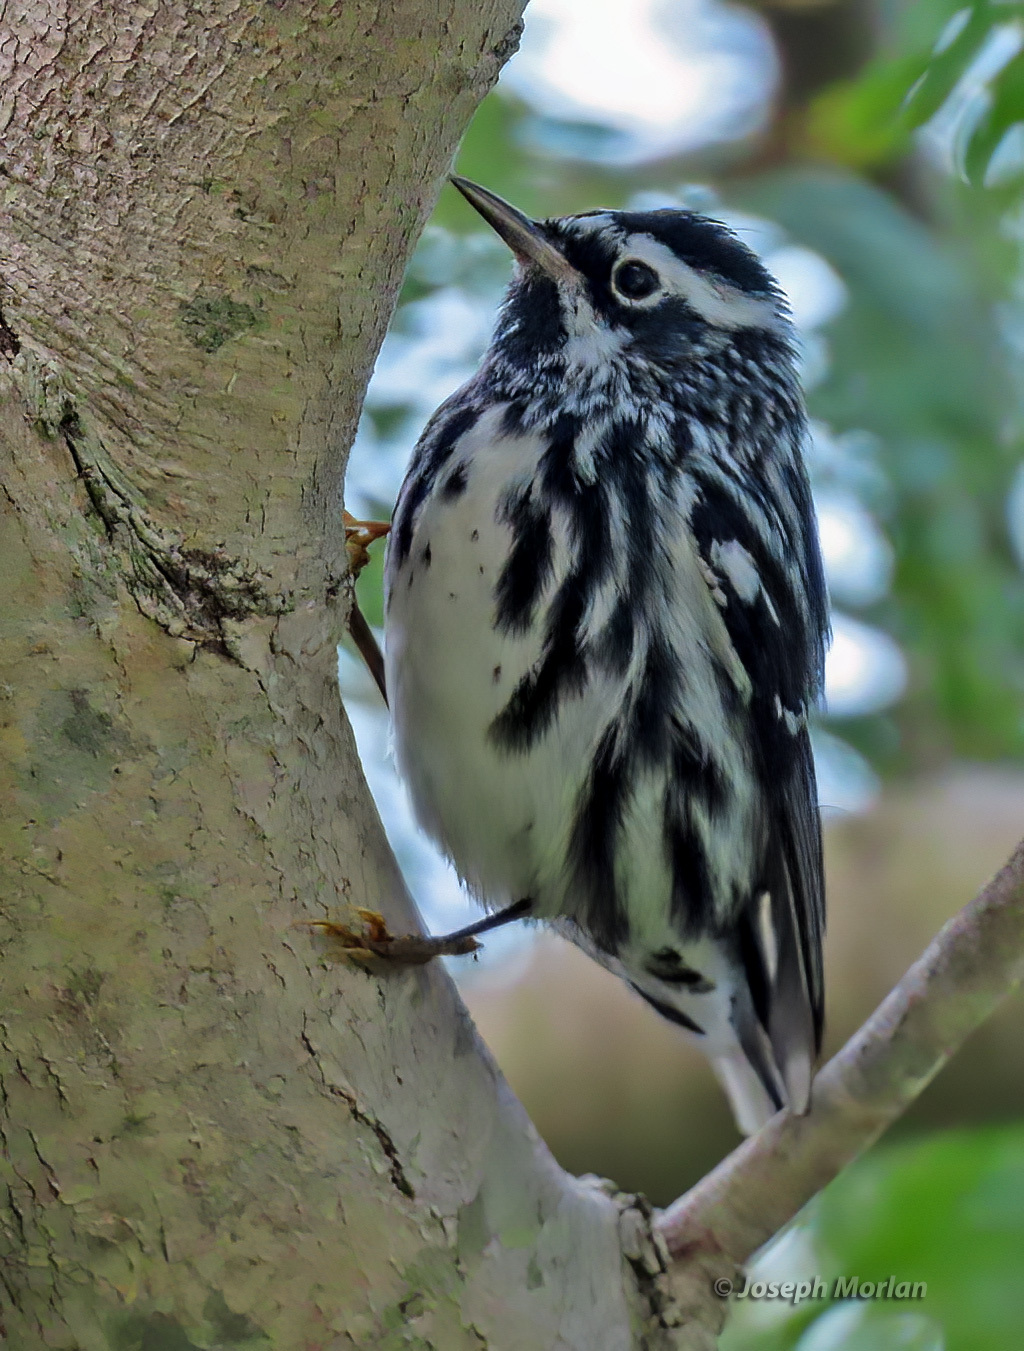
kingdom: Animalia
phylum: Chordata
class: Aves
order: Passeriformes
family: Parulidae
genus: Mniotilta
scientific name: Mniotilta varia
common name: Black-and-white warbler
